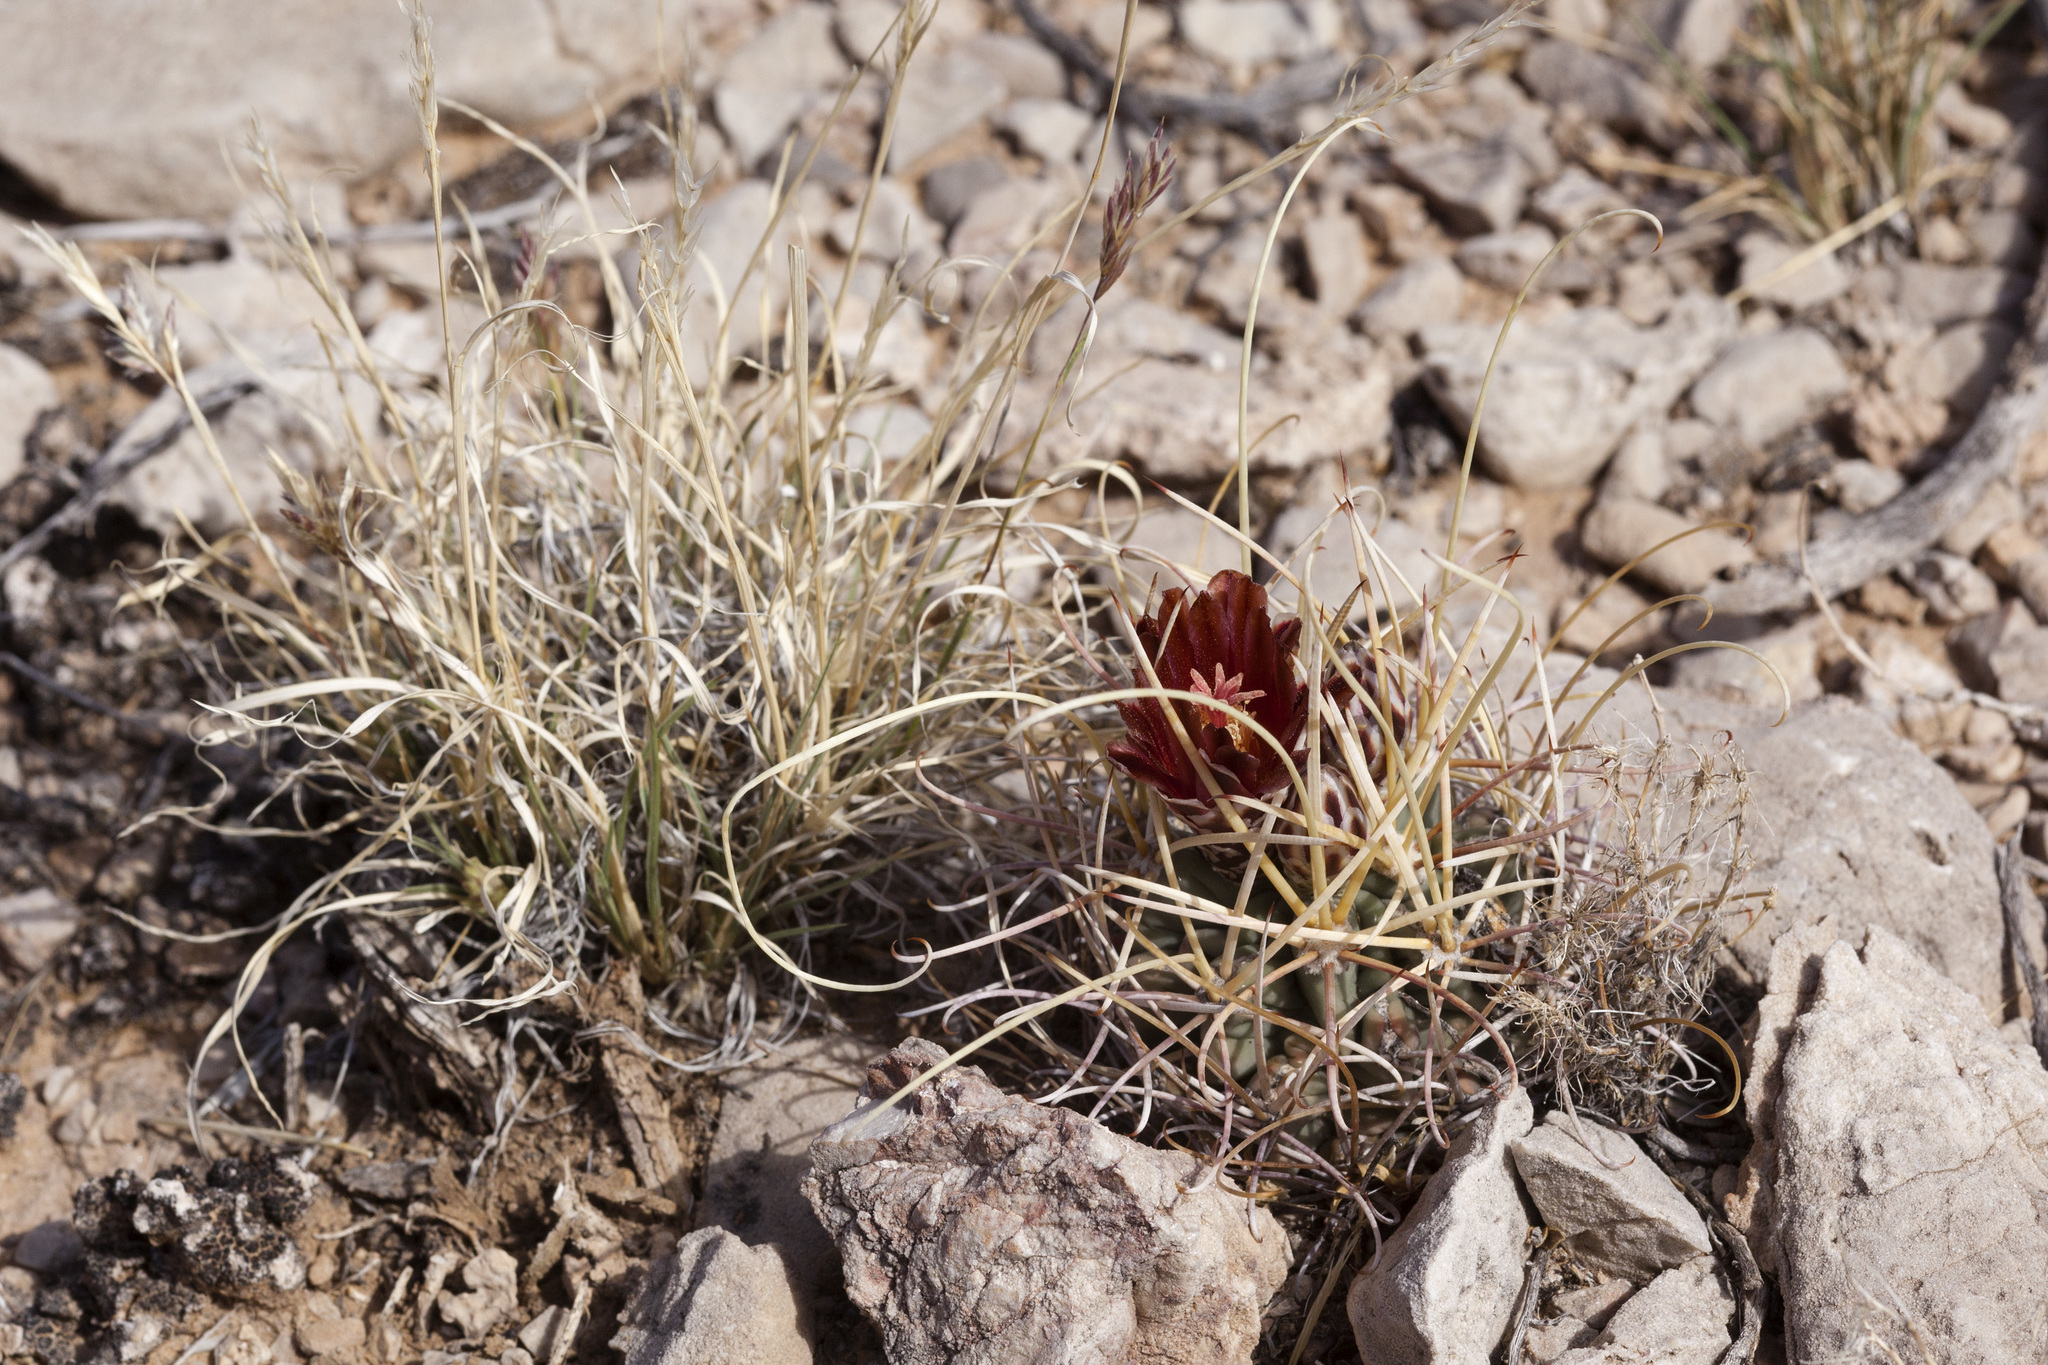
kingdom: Plantae
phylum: Tracheophyta
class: Magnoliopsida
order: Caryophyllales
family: Cactaceae
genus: Ferocactus
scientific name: Ferocactus uncinatus
